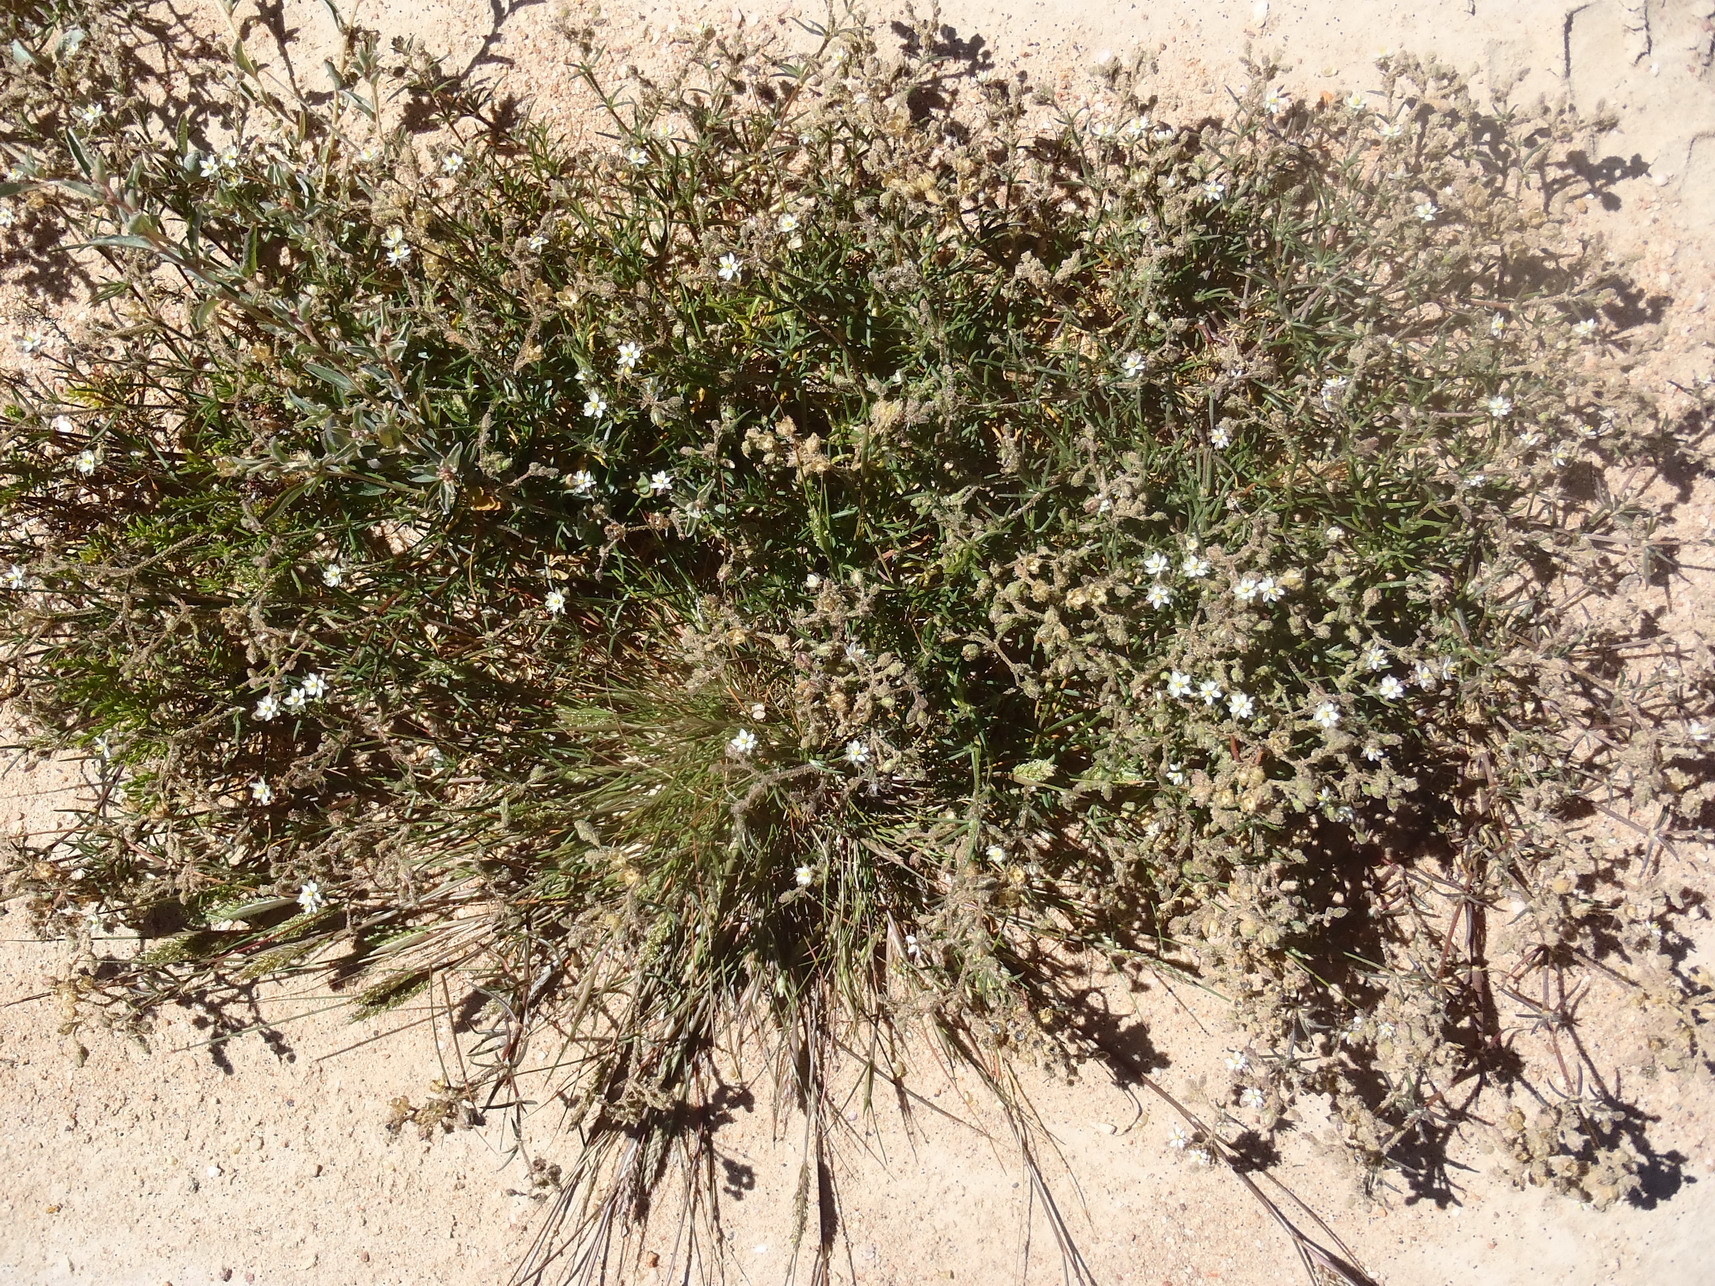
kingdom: Plantae
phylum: Tracheophyta
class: Magnoliopsida
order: Caryophyllales
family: Caryophyllaceae
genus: Spergularia
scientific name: Spergularia media
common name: Greater sea-spurrey
